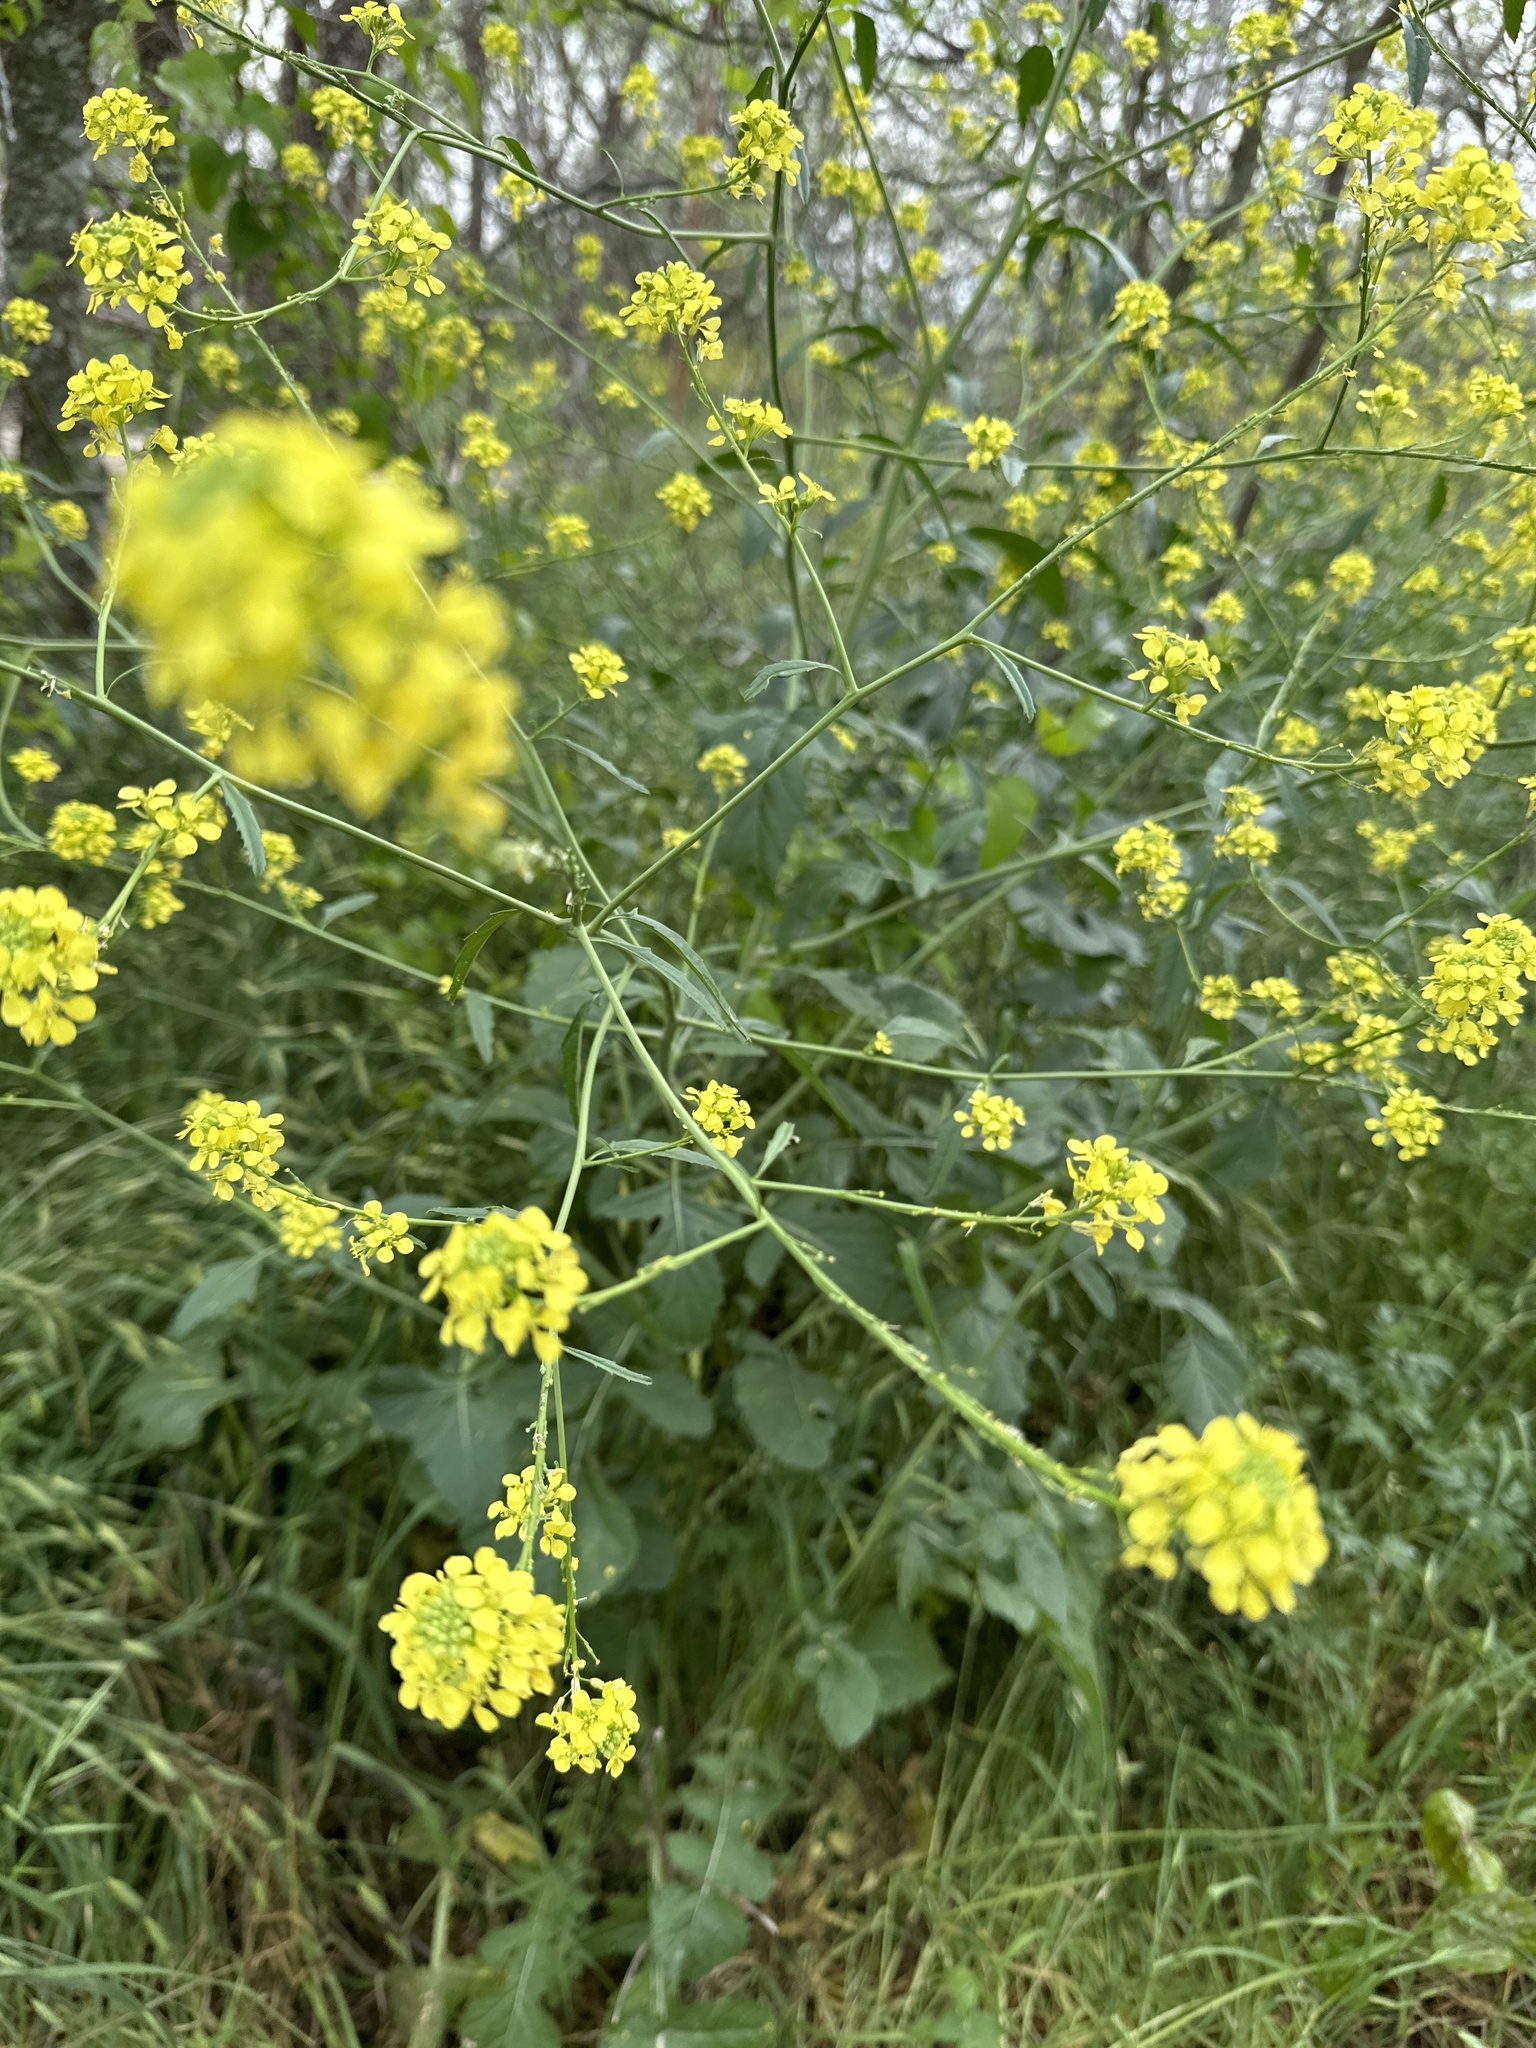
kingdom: Plantae
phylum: Tracheophyta
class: Magnoliopsida
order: Brassicales
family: Brassicaceae
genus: Rapistrum
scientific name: Rapistrum rugosum
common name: Annual bastardcabbage
